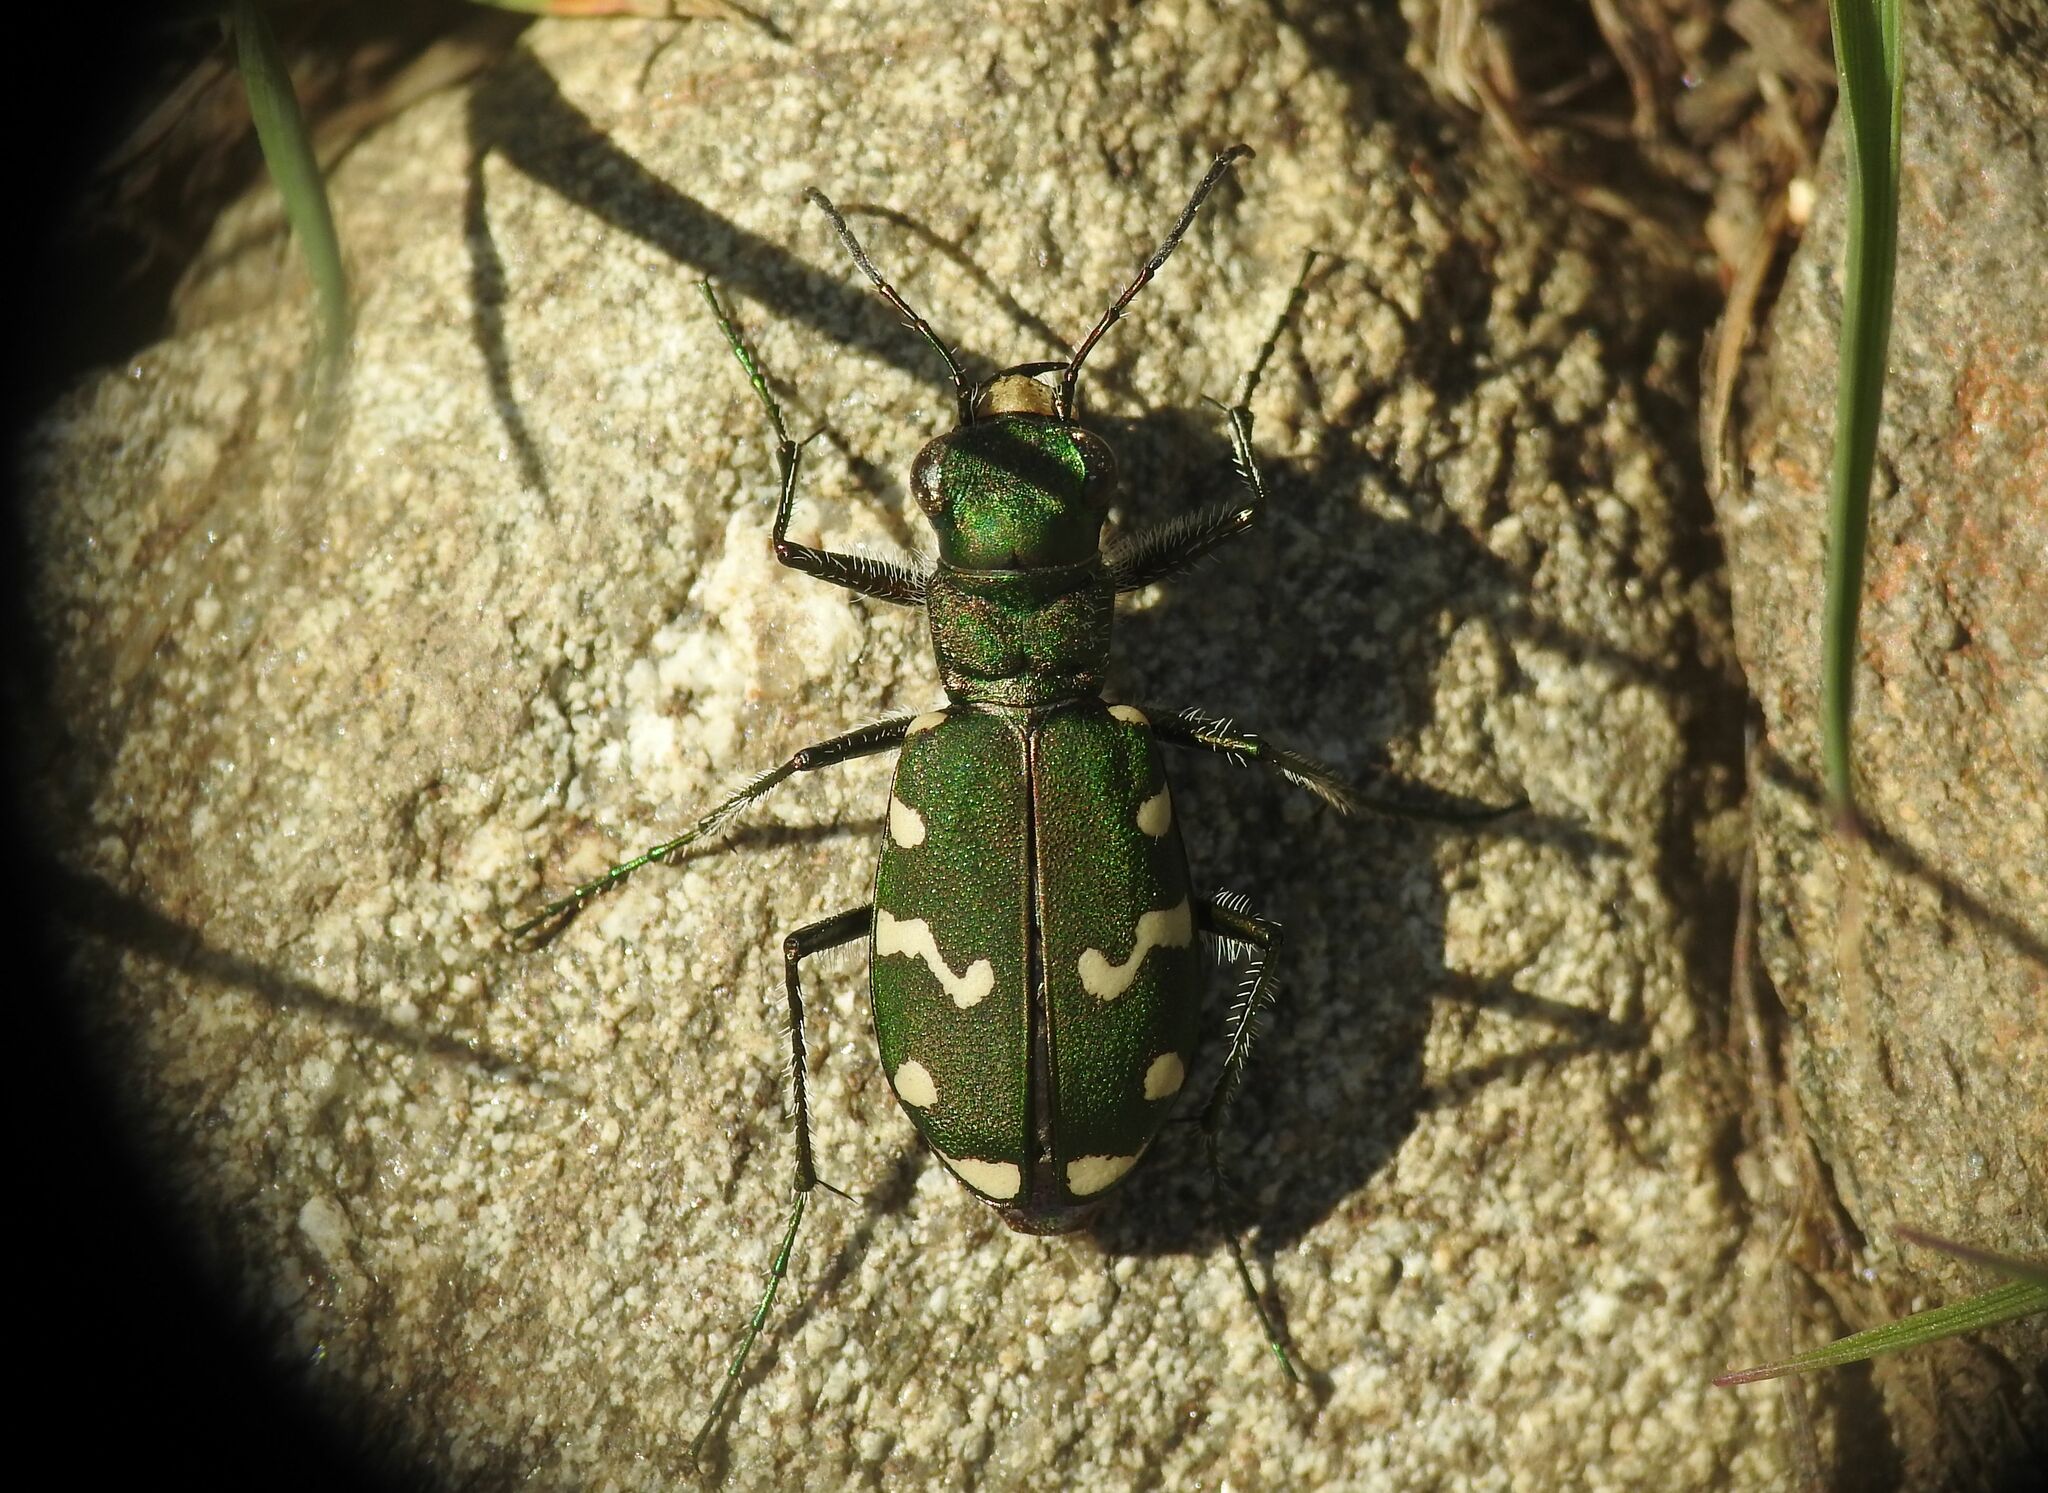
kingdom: Animalia
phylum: Arthropoda
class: Insecta
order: Coleoptera
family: Carabidae
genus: Cicindela
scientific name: Cicindela gallica
